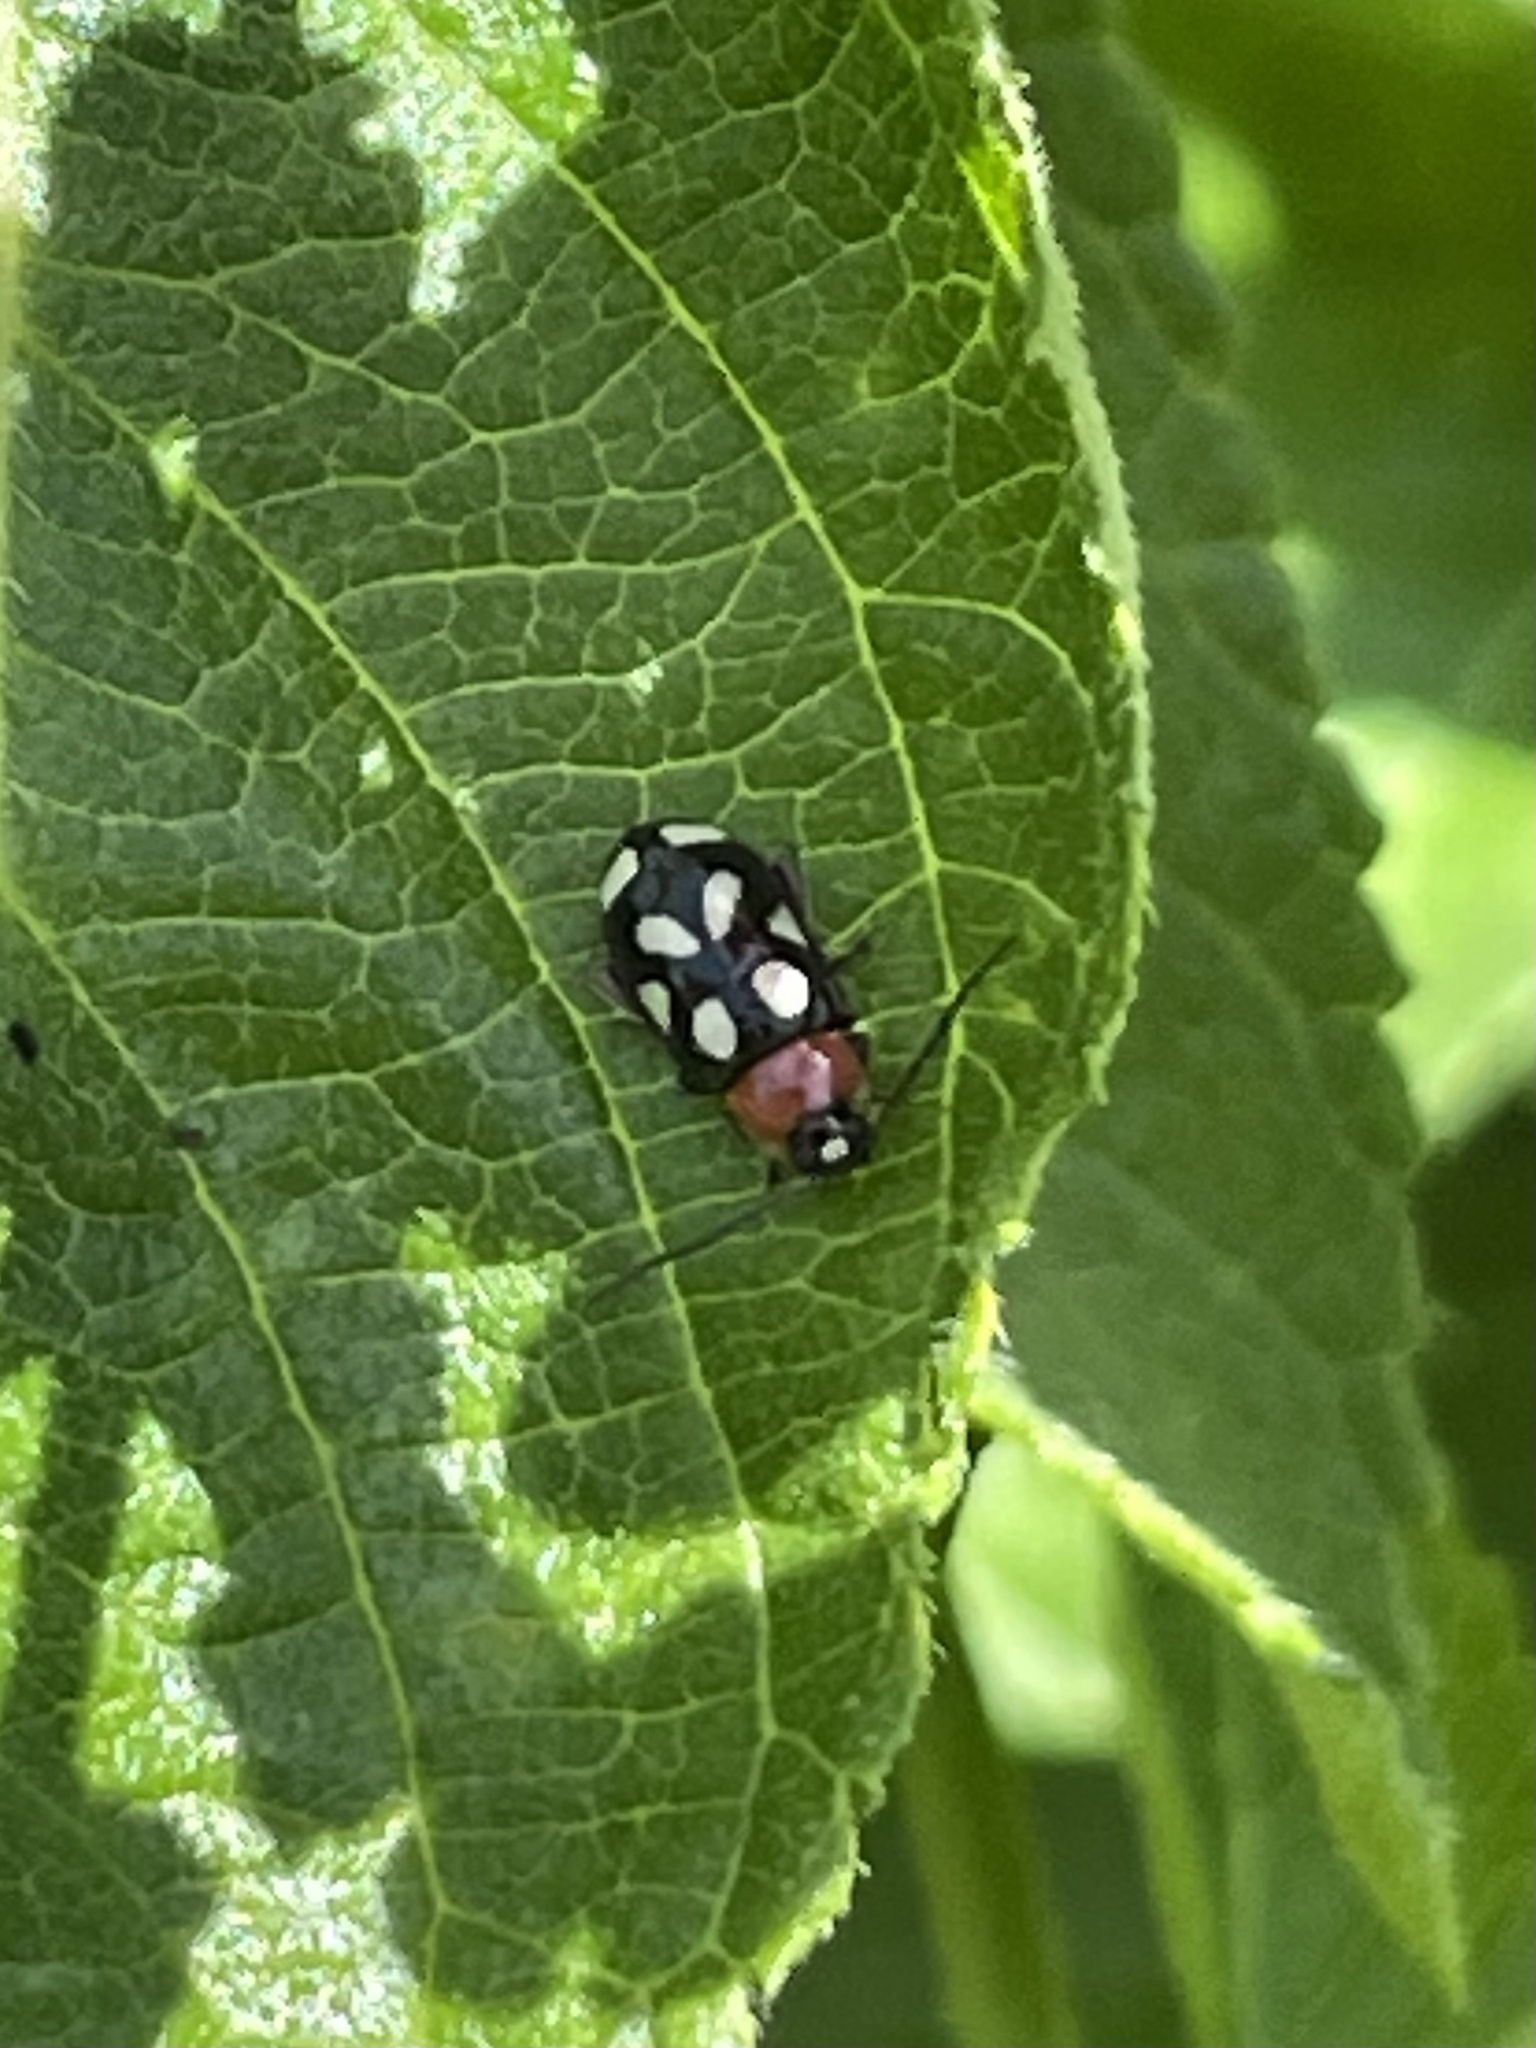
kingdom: Animalia
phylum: Arthropoda
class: Insecta
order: Coleoptera
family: Chrysomelidae
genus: Omophoita
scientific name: Omophoita cyanipennis
